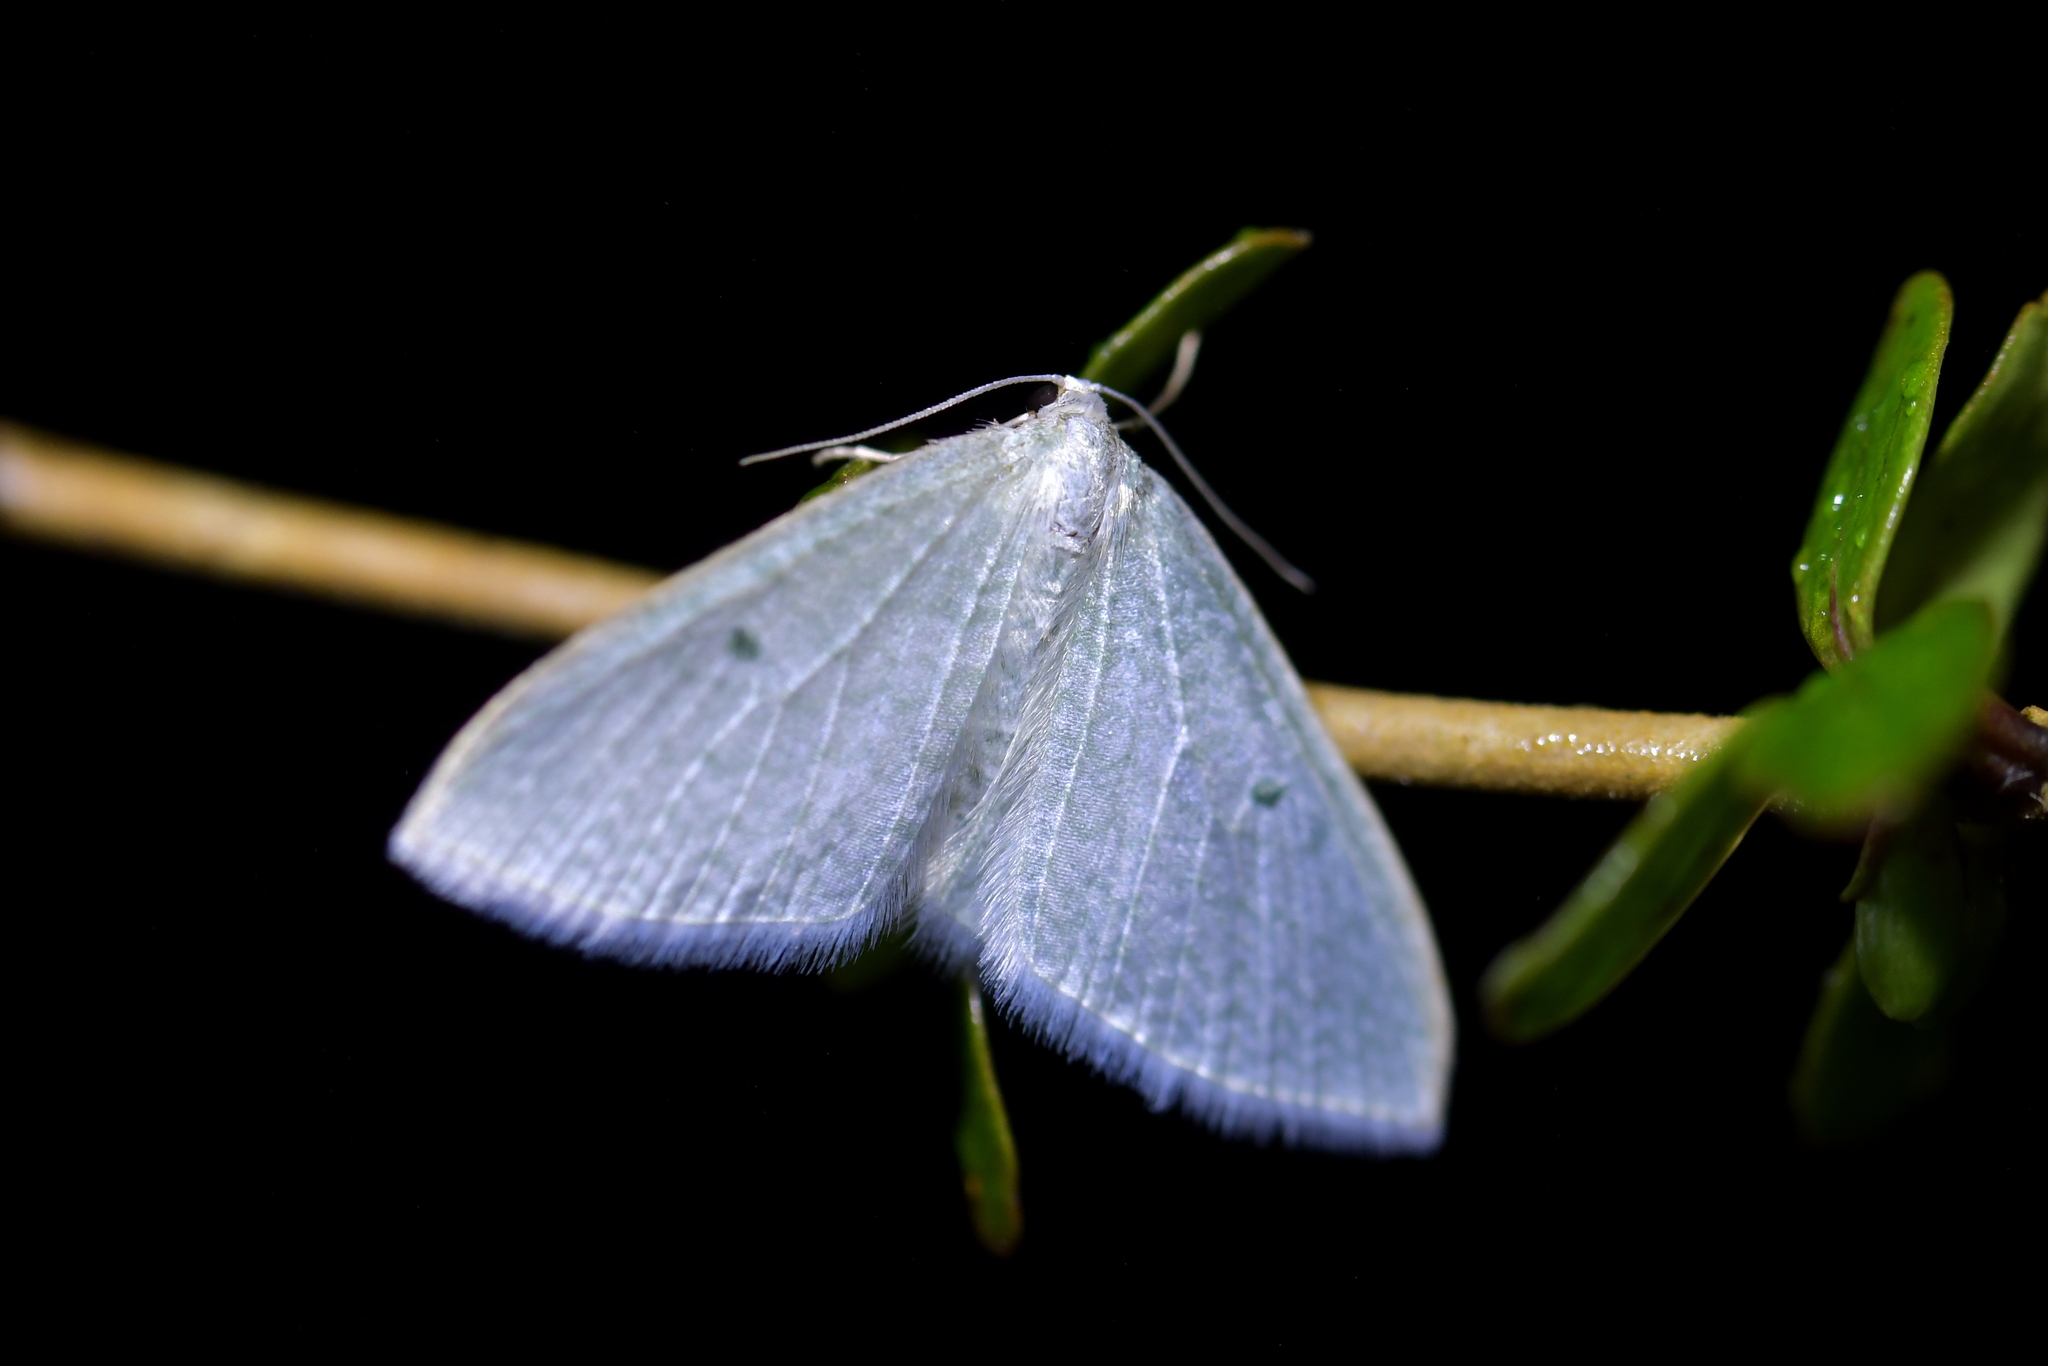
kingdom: Animalia
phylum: Arthropoda
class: Insecta
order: Lepidoptera
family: Geometridae
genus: Poecilasthena
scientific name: Poecilasthena pulchraria
